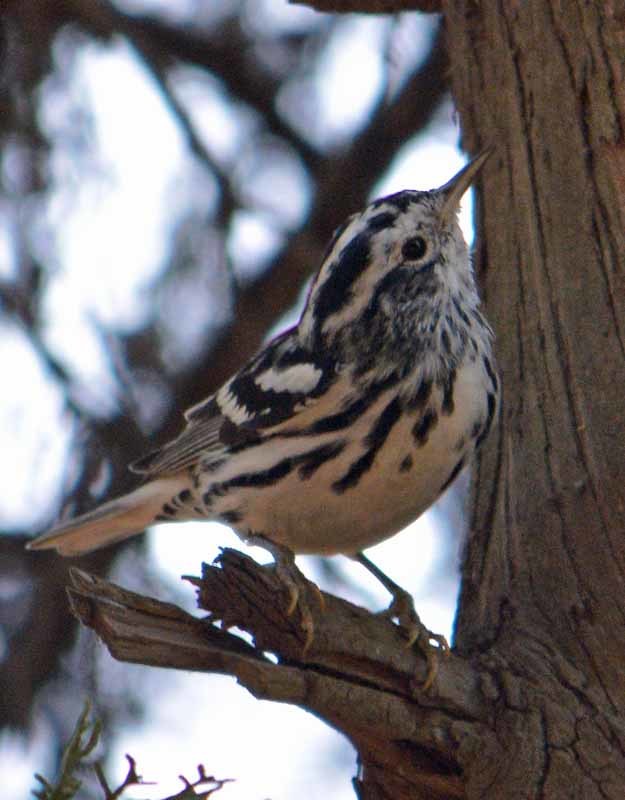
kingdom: Animalia
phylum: Chordata
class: Aves
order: Passeriformes
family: Parulidae
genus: Mniotilta
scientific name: Mniotilta varia
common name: Black-and-white warbler
